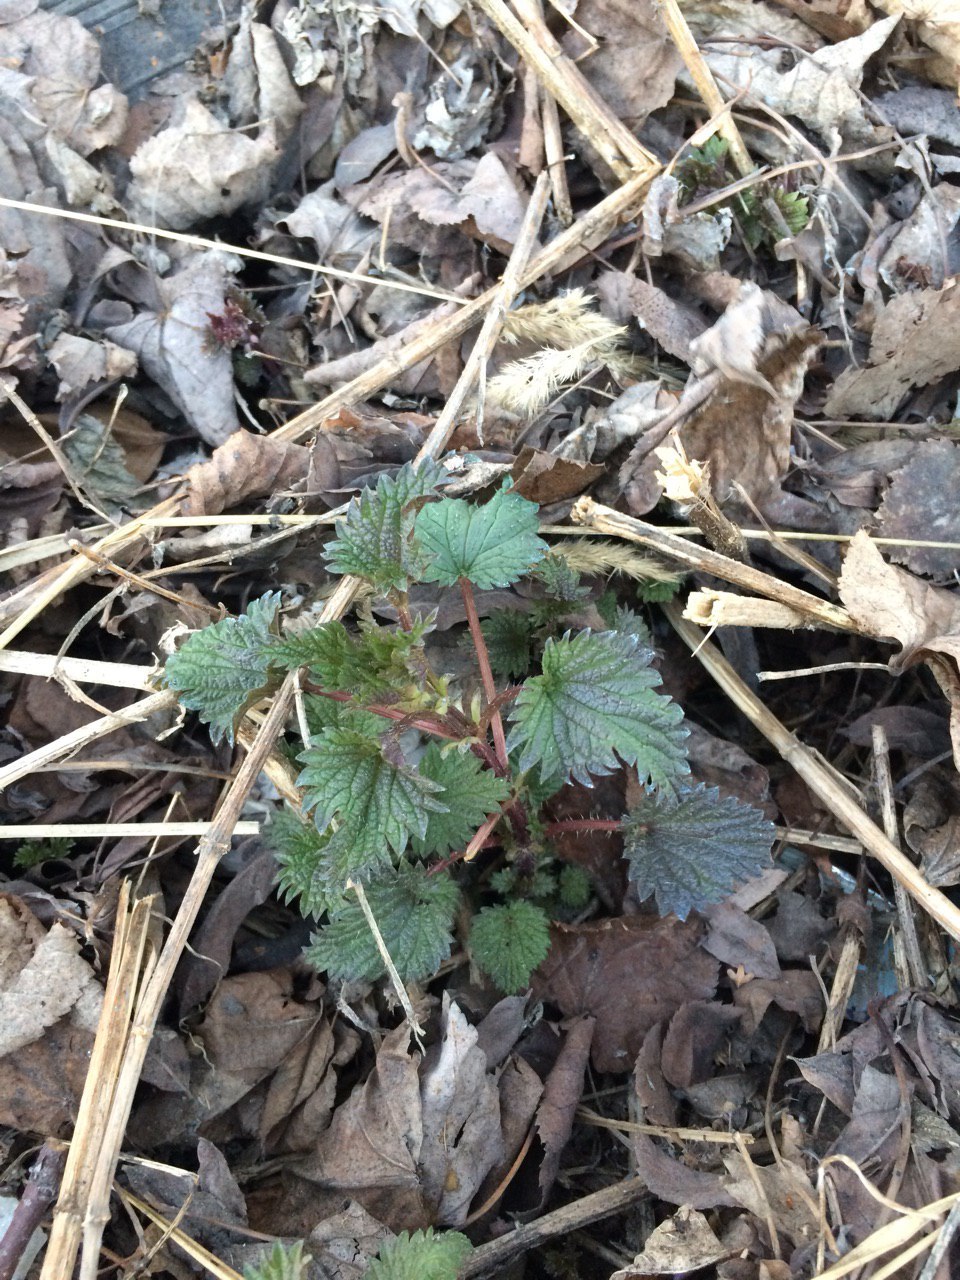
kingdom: Plantae
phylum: Tracheophyta
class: Magnoliopsida
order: Rosales
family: Urticaceae
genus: Urtica
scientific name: Urtica dioica
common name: Common nettle
